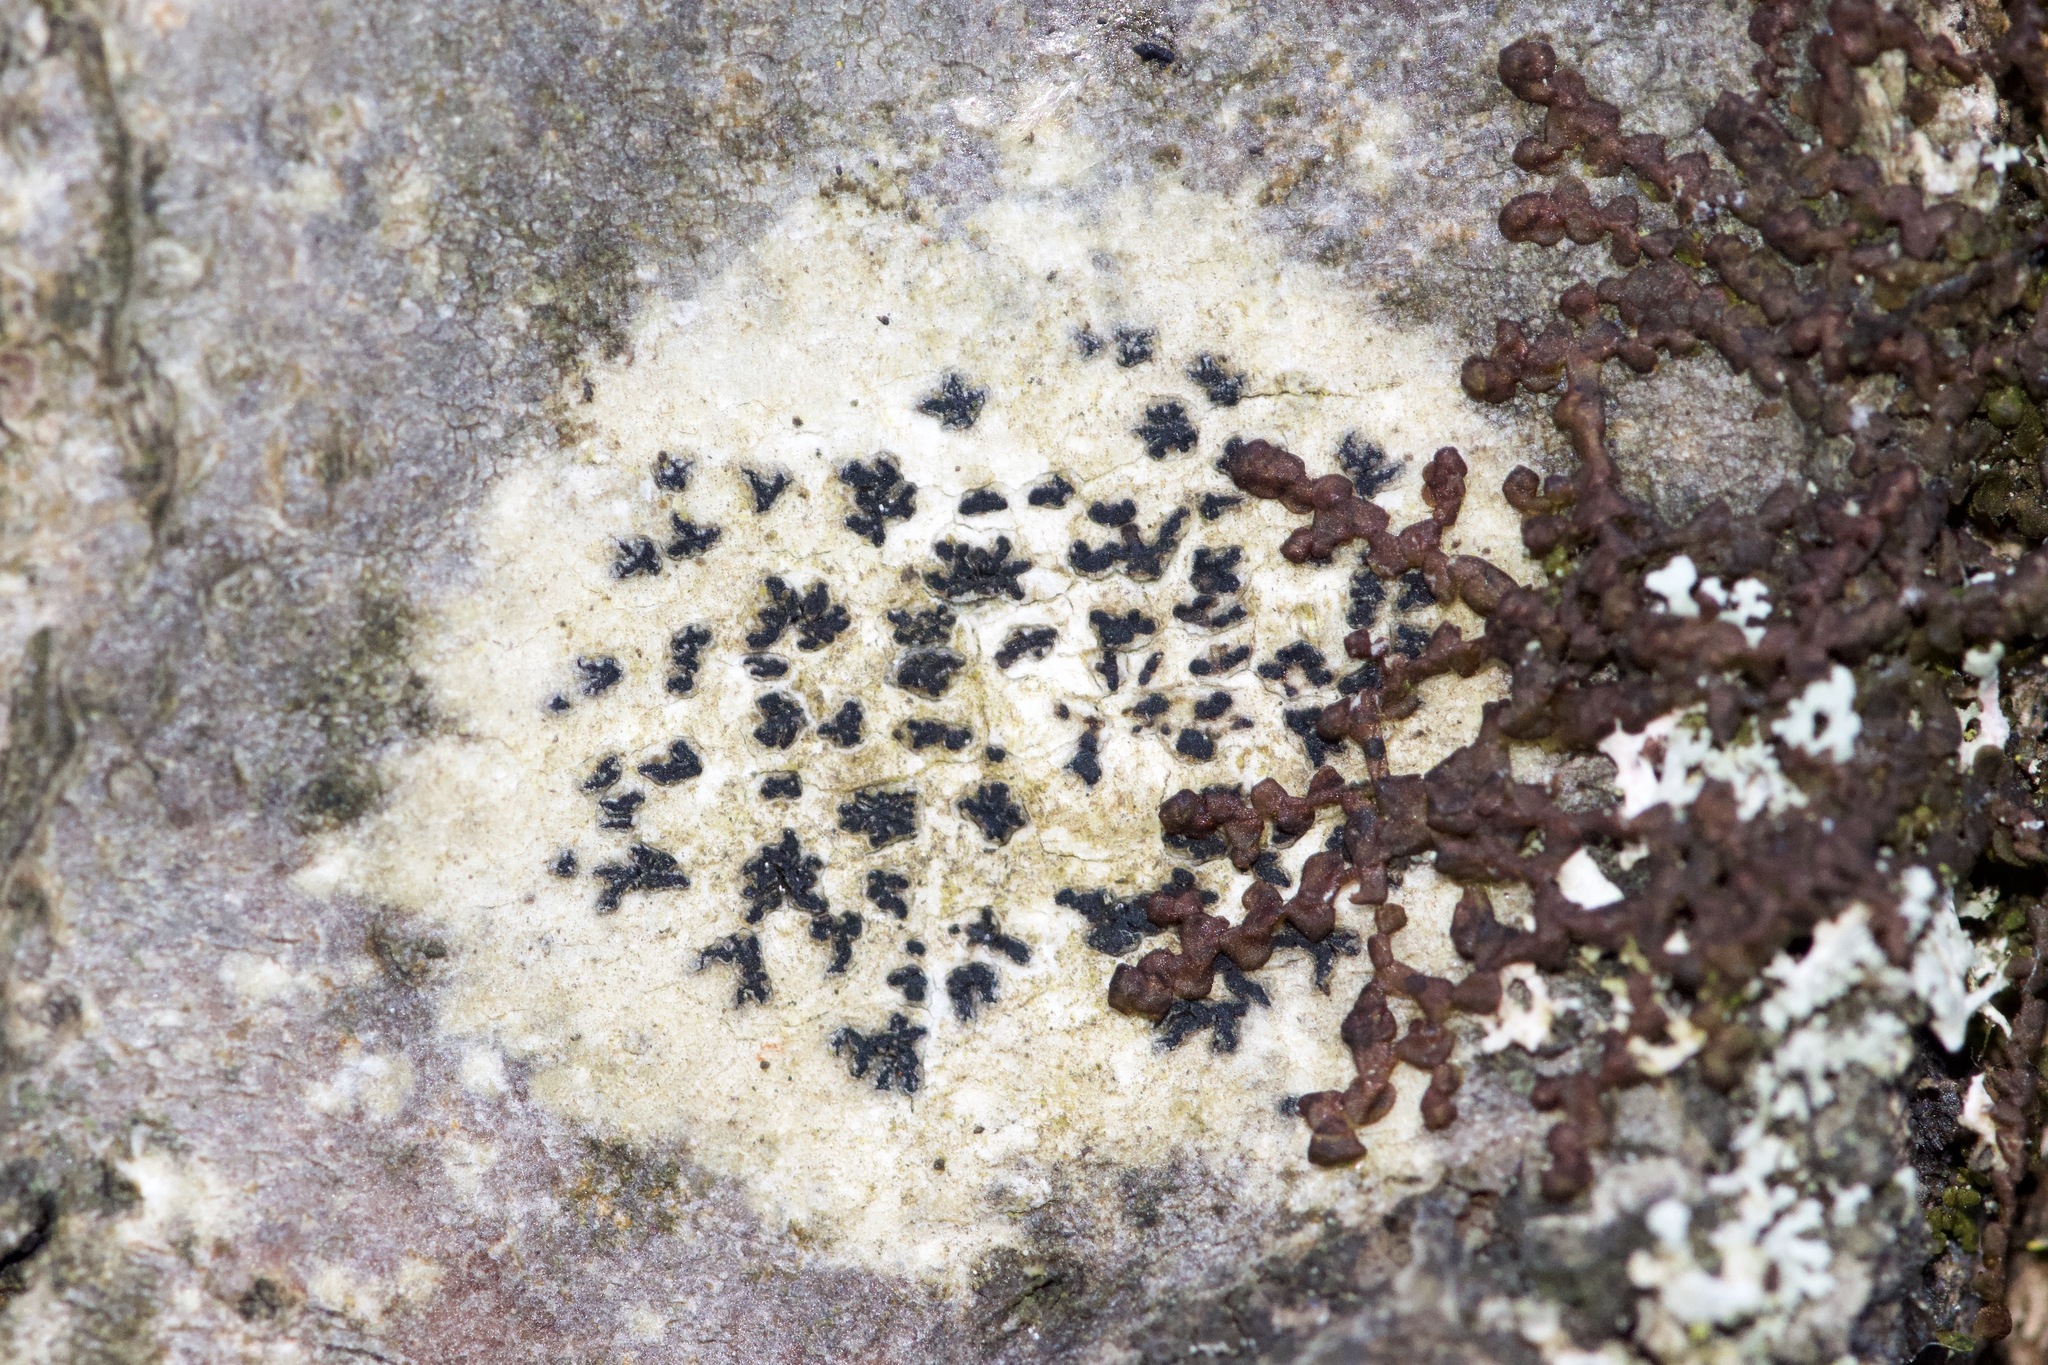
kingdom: Fungi
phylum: Ascomycota
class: Arthoniomycetes
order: Arthoniales
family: Arthoniaceae
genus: Arthonia
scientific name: Arthonia radiata
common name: Asterisk lichen
